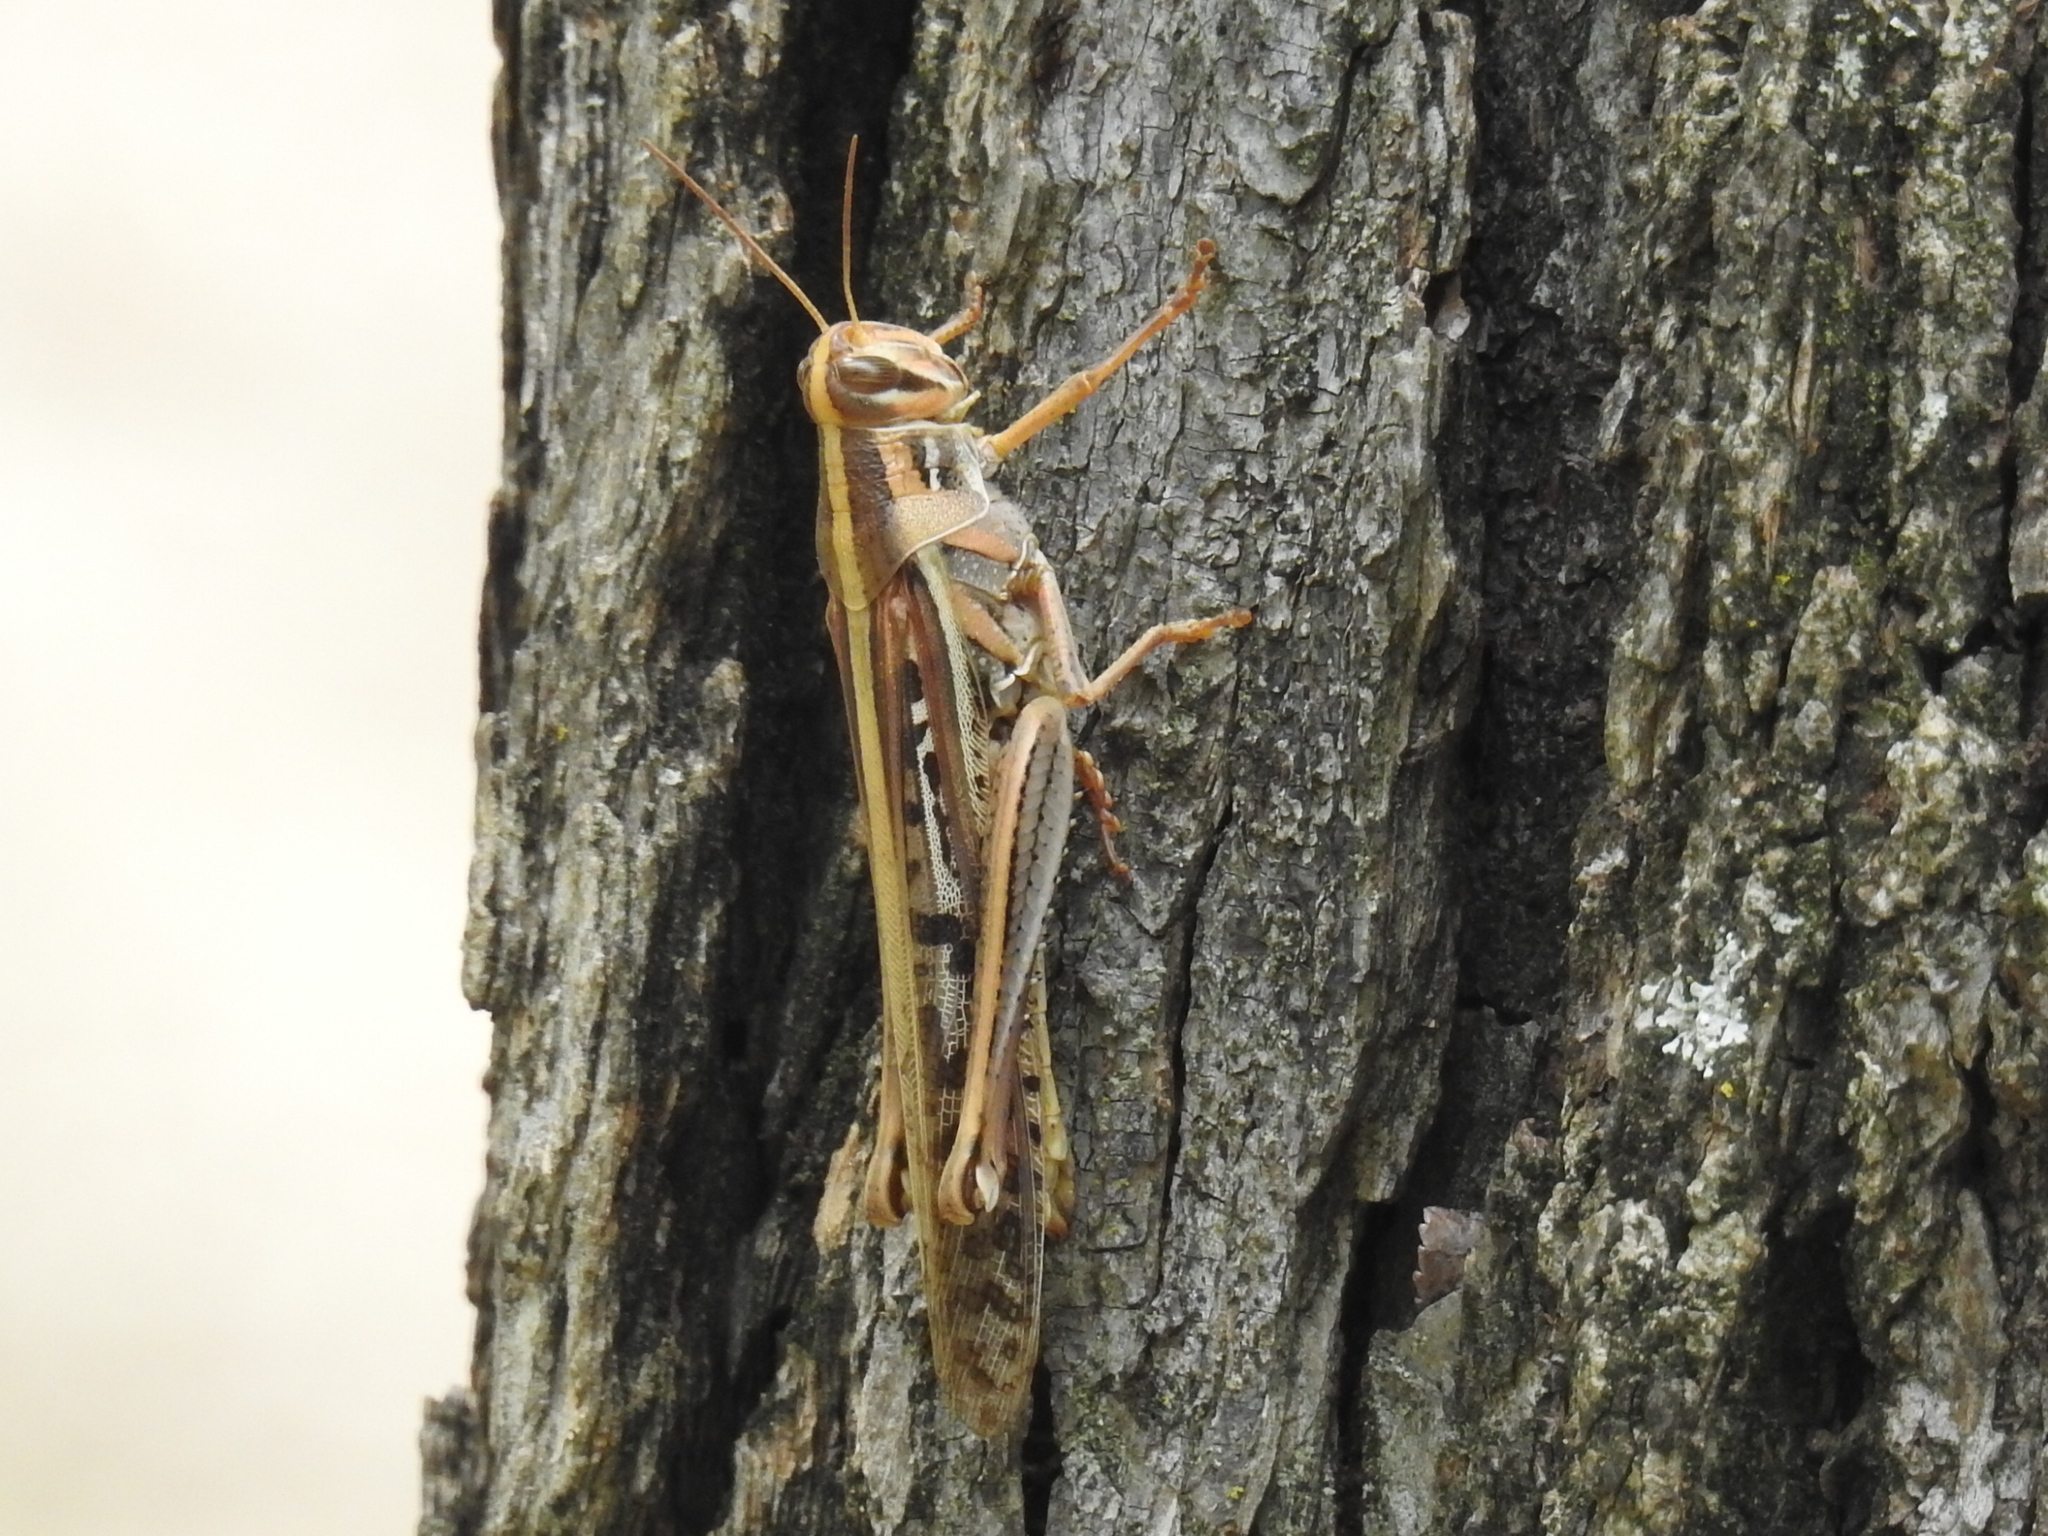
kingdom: Animalia
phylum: Arthropoda
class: Insecta
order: Orthoptera
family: Acrididae
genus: Schistocerca
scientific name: Schistocerca americana
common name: American bird locust
